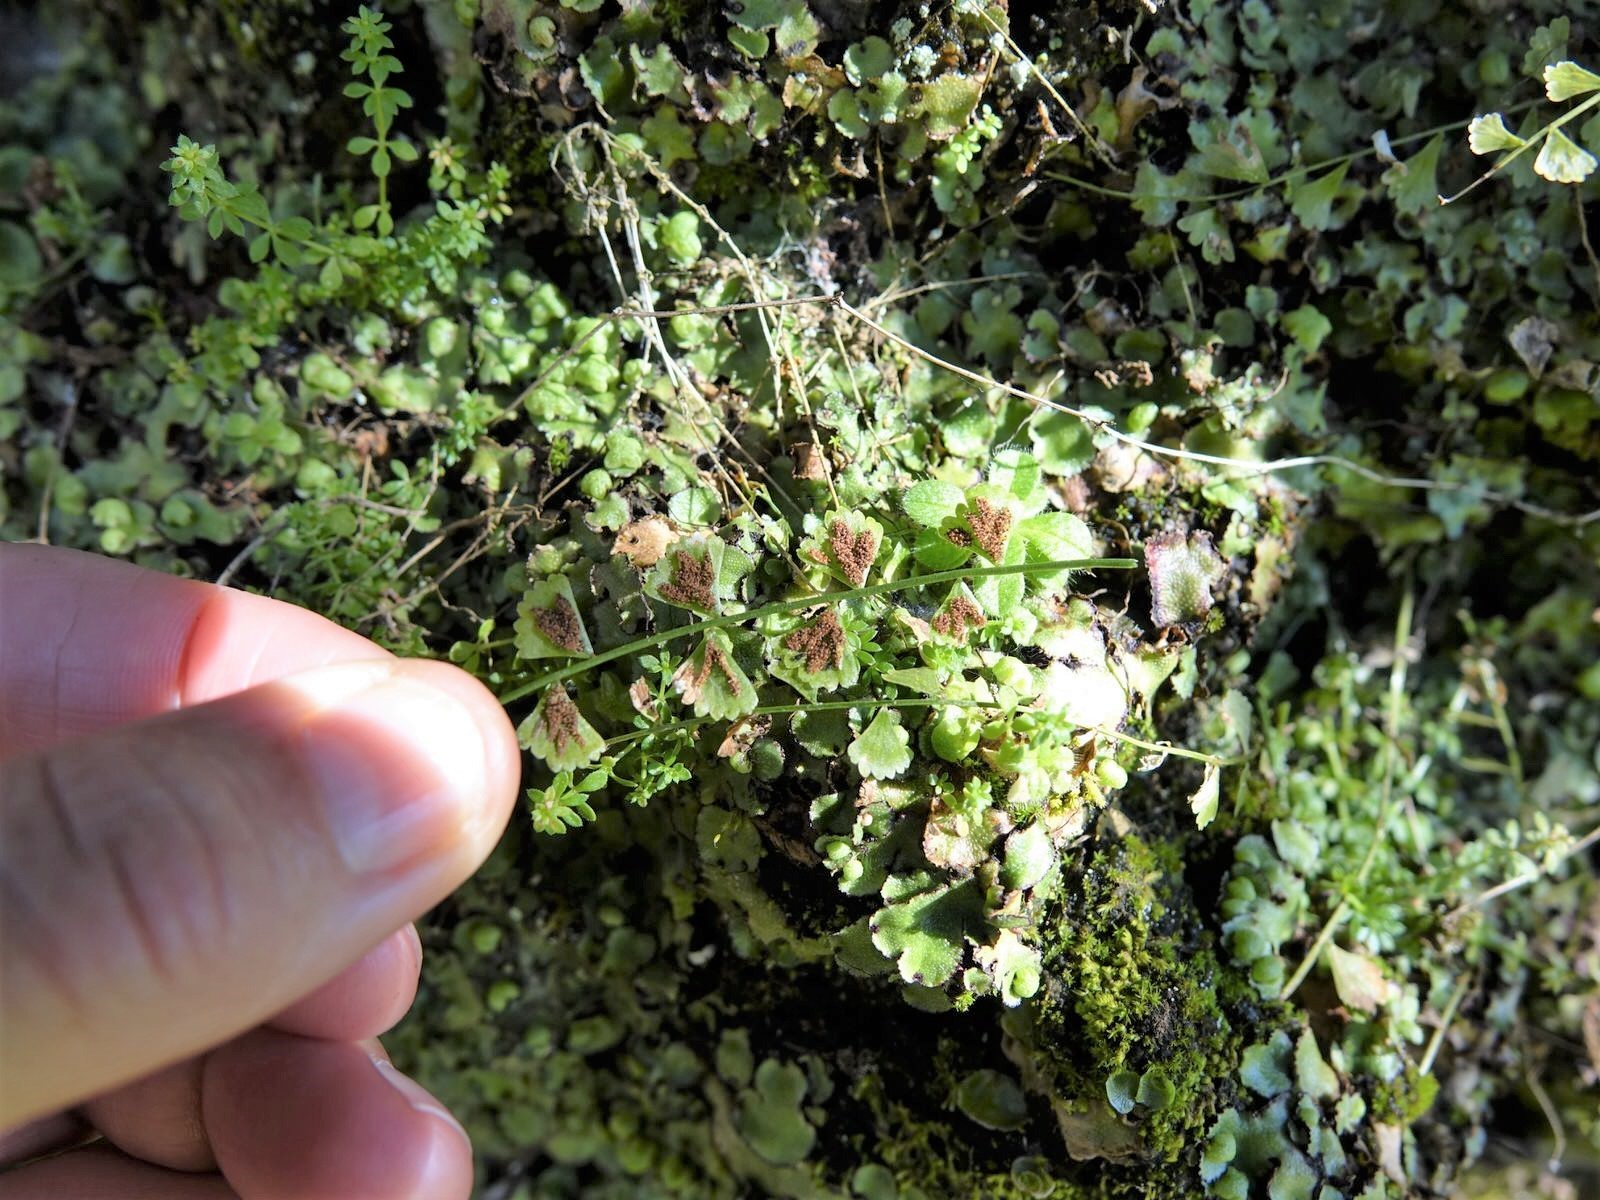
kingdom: Plantae
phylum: Tracheophyta
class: Polypodiopsida
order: Polypodiales
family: Aspleniaceae
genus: Asplenium
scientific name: Asplenium flabellifolium
